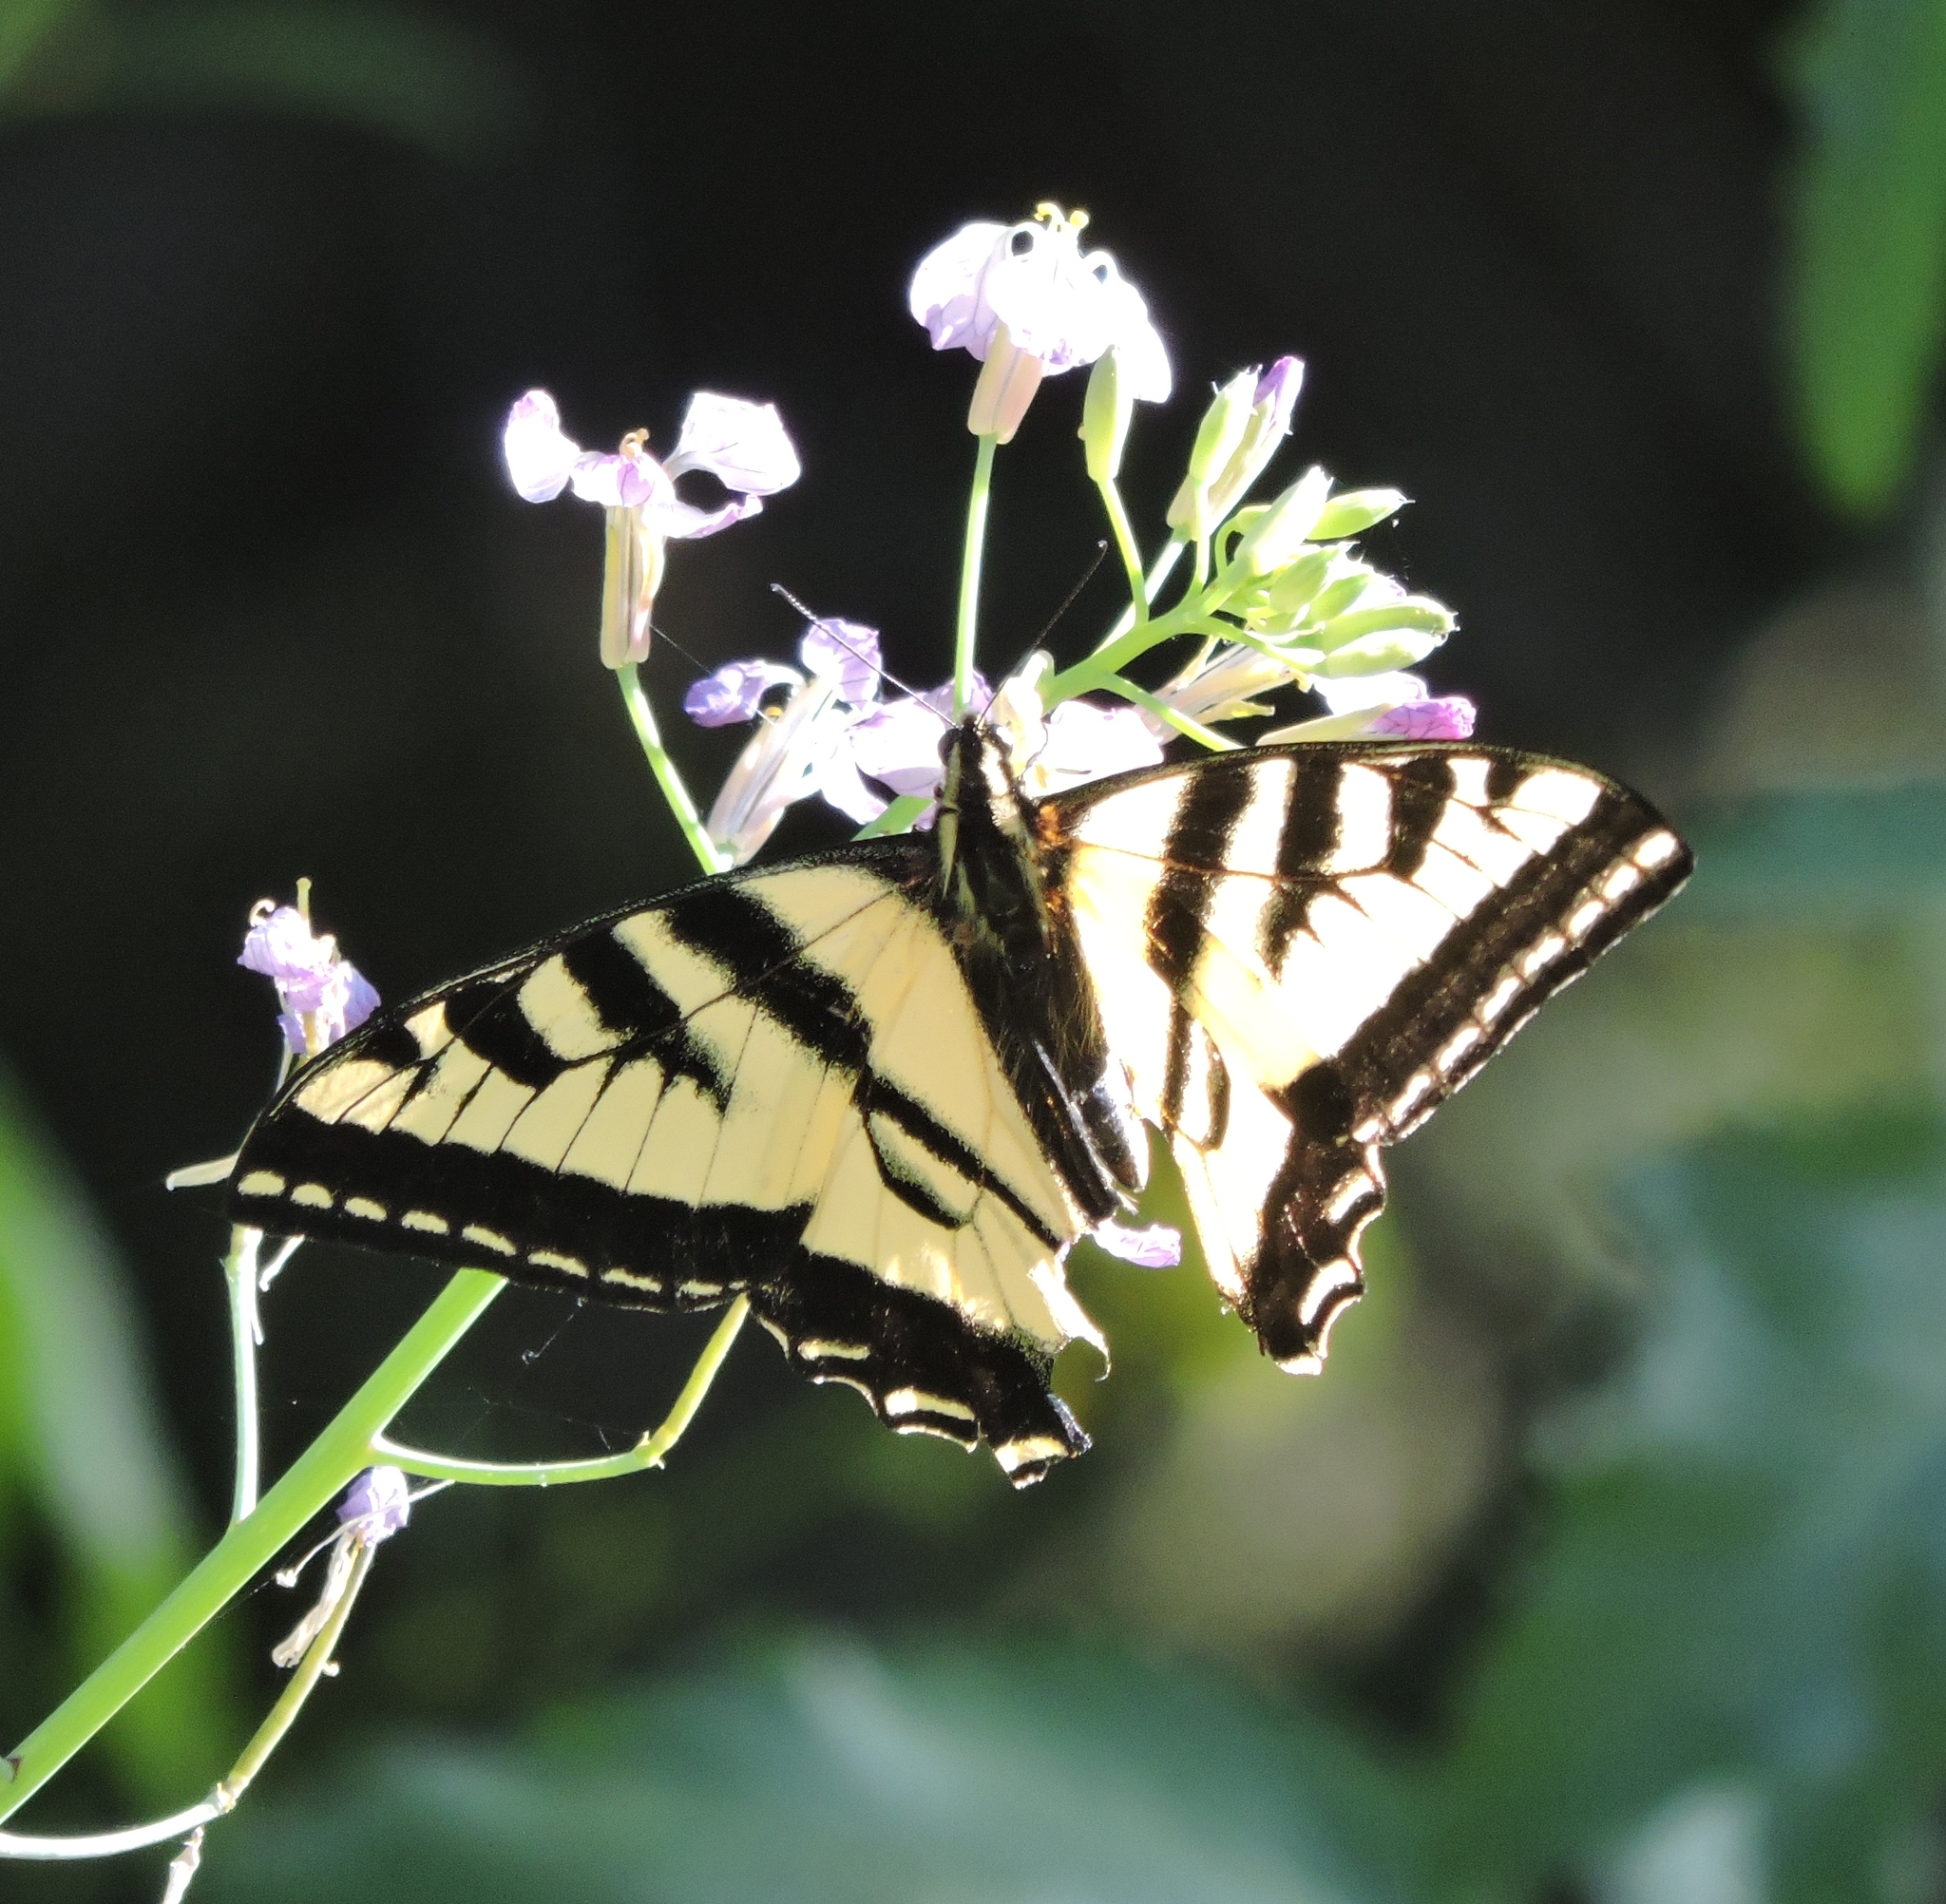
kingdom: Animalia
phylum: Arthropoda
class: Insecta
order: Lepidoptera
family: Papilionidae
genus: Papilio
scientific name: Papilio rutulus
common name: Western tiger swallowtail
